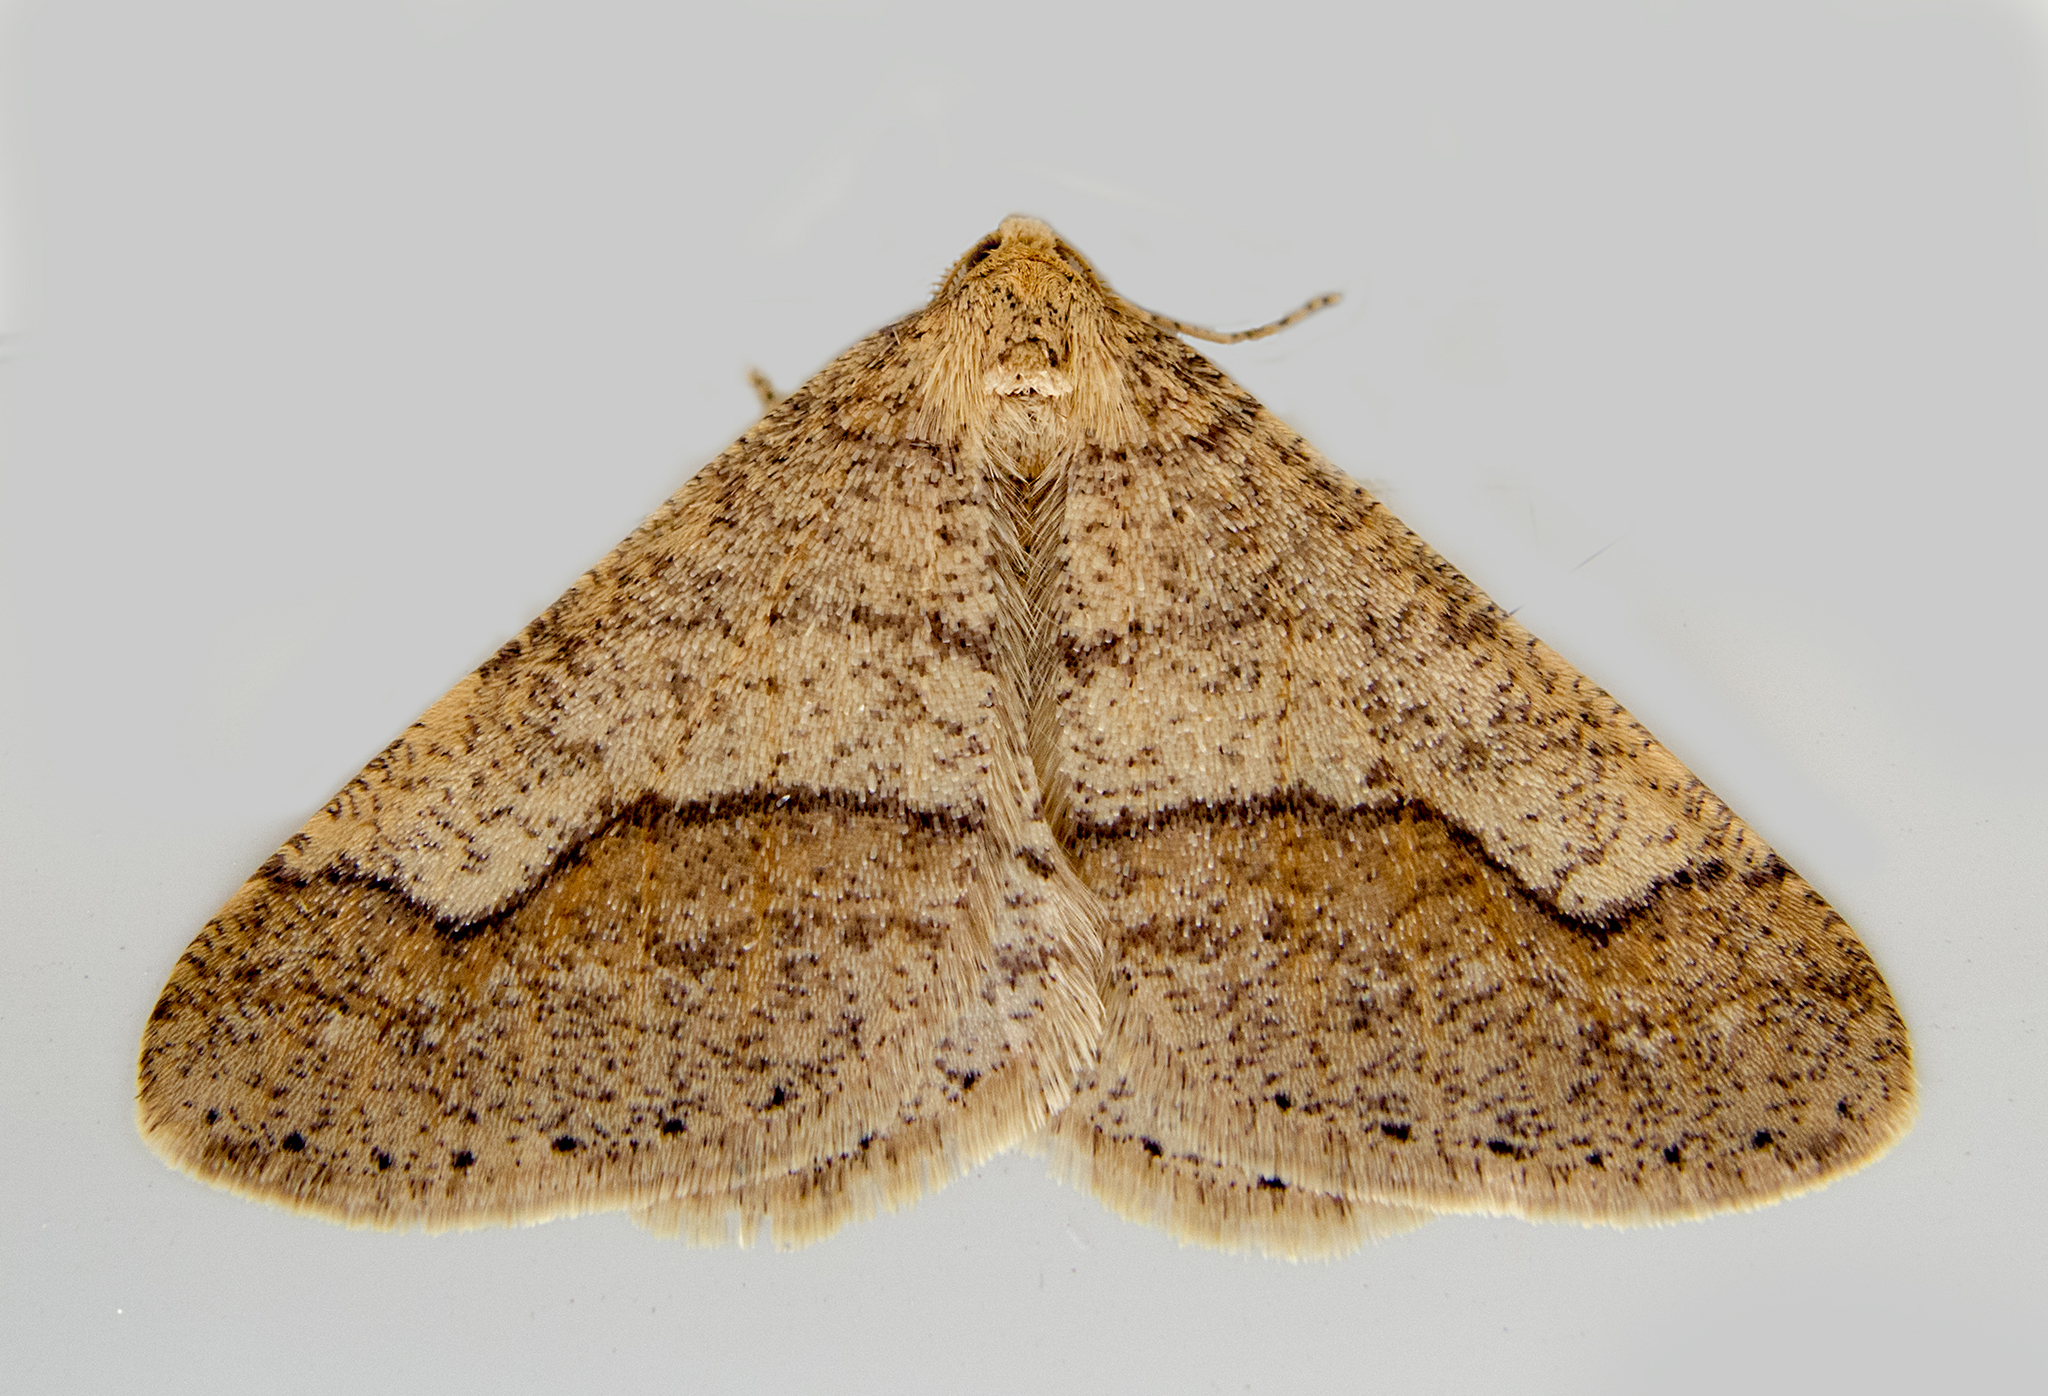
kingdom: Animalia
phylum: Arthropoda
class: Insecta
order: Lepidoptera
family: Geometridae
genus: Agriopis
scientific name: Agriopis marginaria
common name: Dotted border
